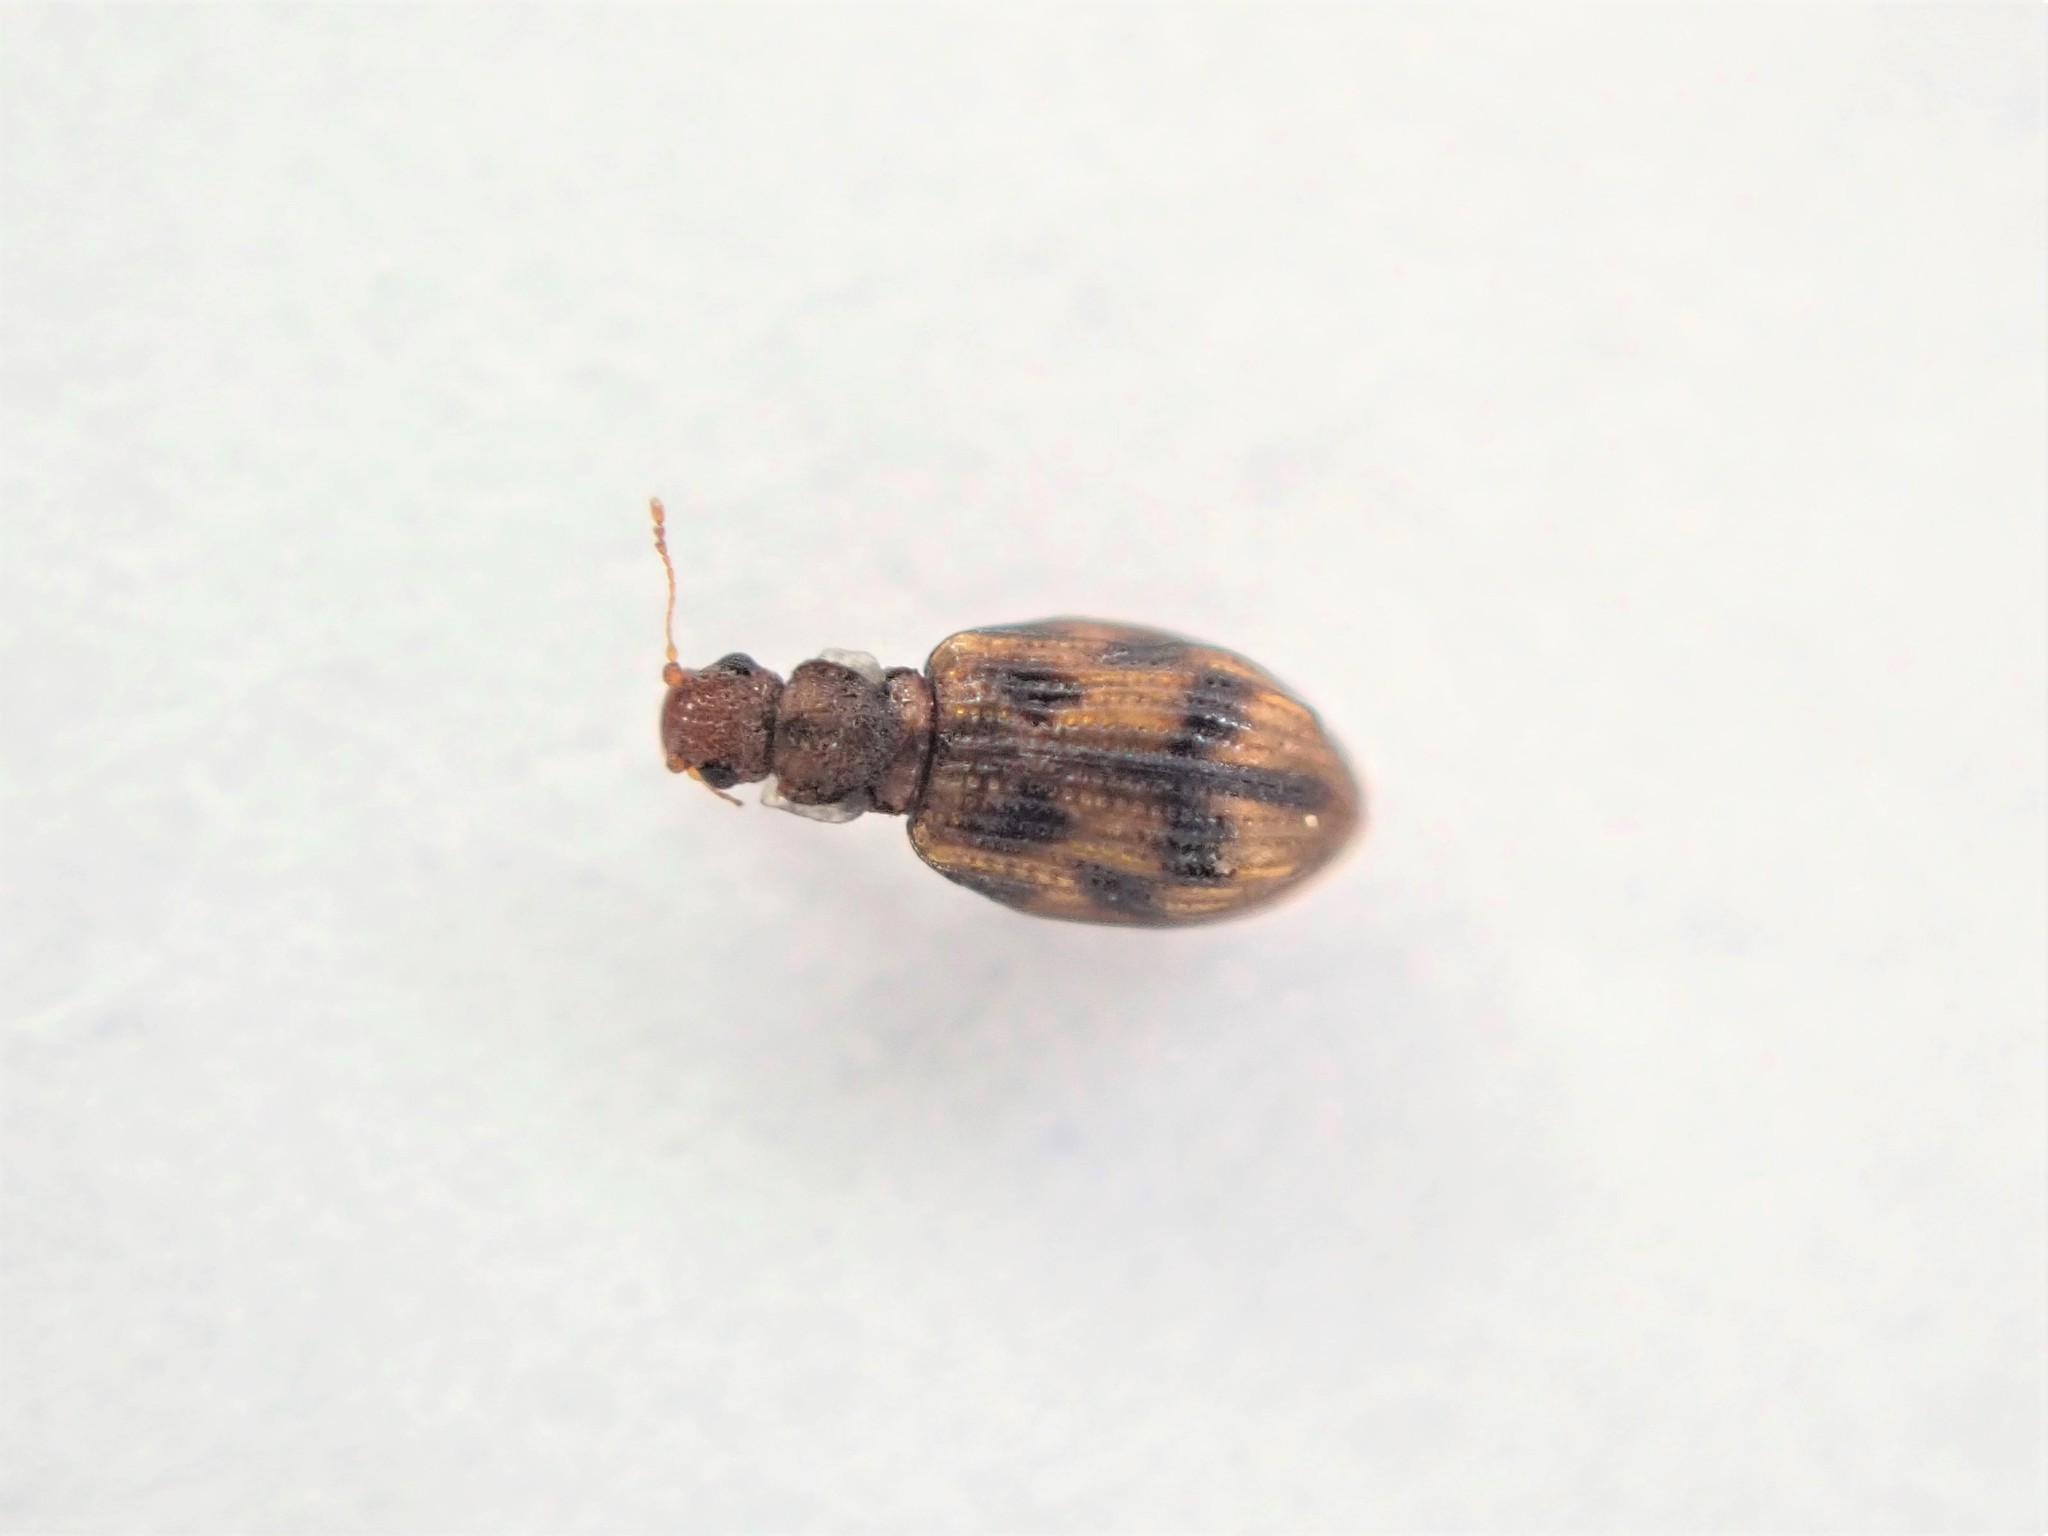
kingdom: Animalia
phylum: Arthropoda
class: Insecta
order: Coleoptera
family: Latridiidae
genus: Cartodere
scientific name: Cartodere bifasciata
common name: Plaster beetle
